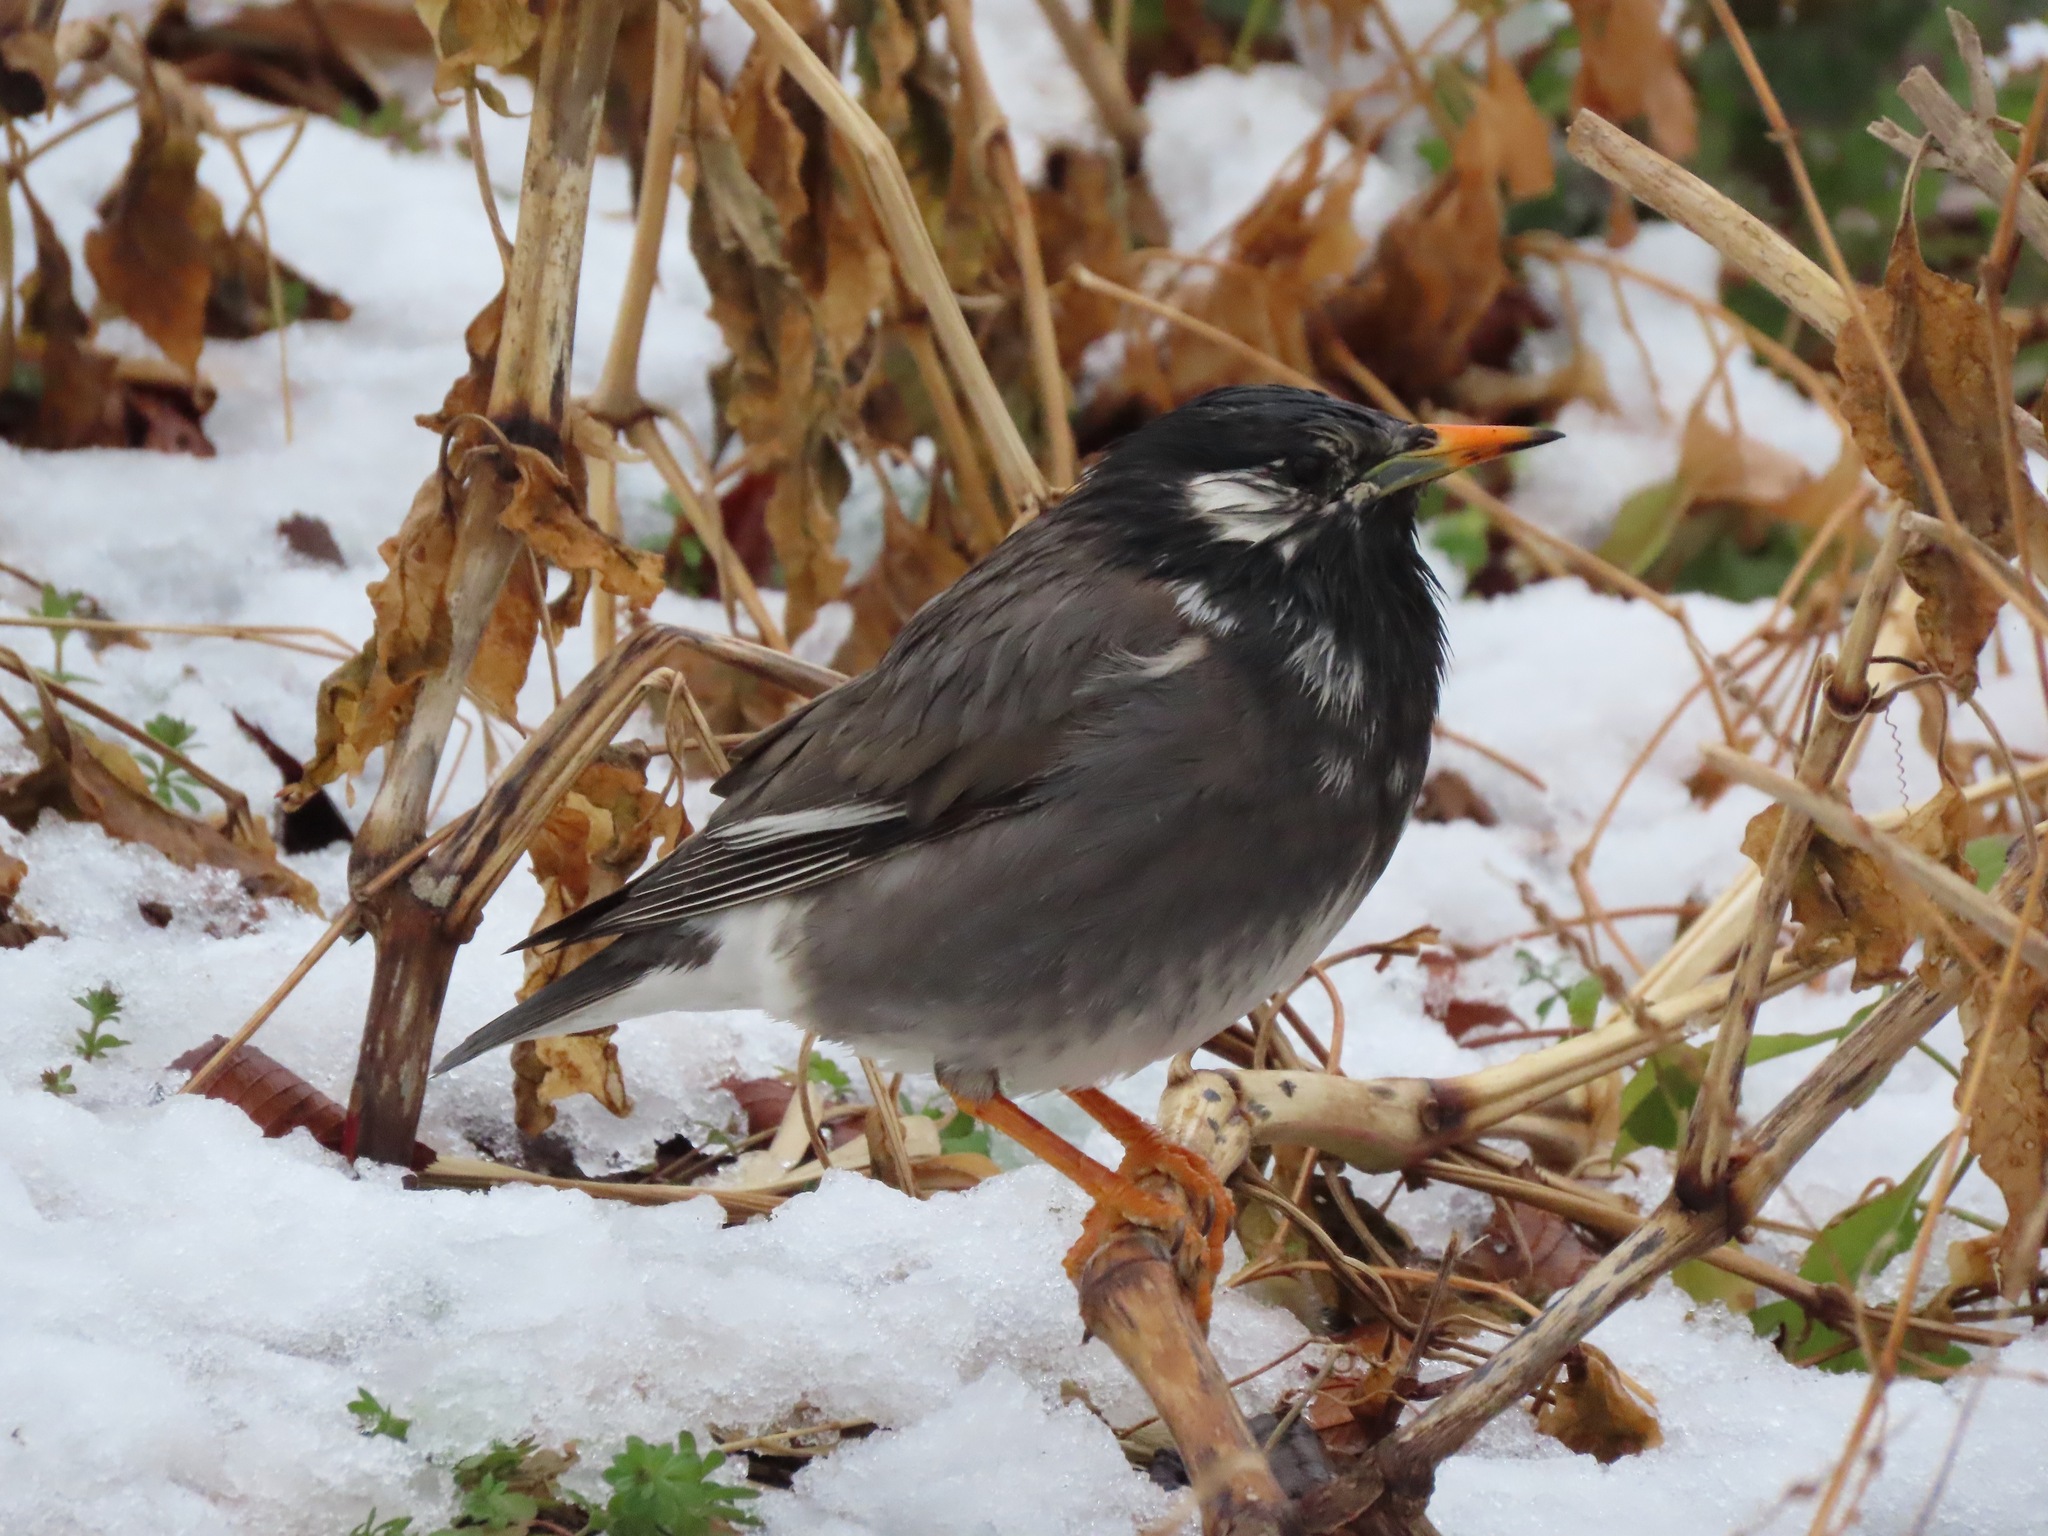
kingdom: Animalia
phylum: Chordata
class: Aves
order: Passeriformes
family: Sturnidae
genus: Spodiopsar
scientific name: Spodiopsar cineraceus
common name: White-cheeked starling
